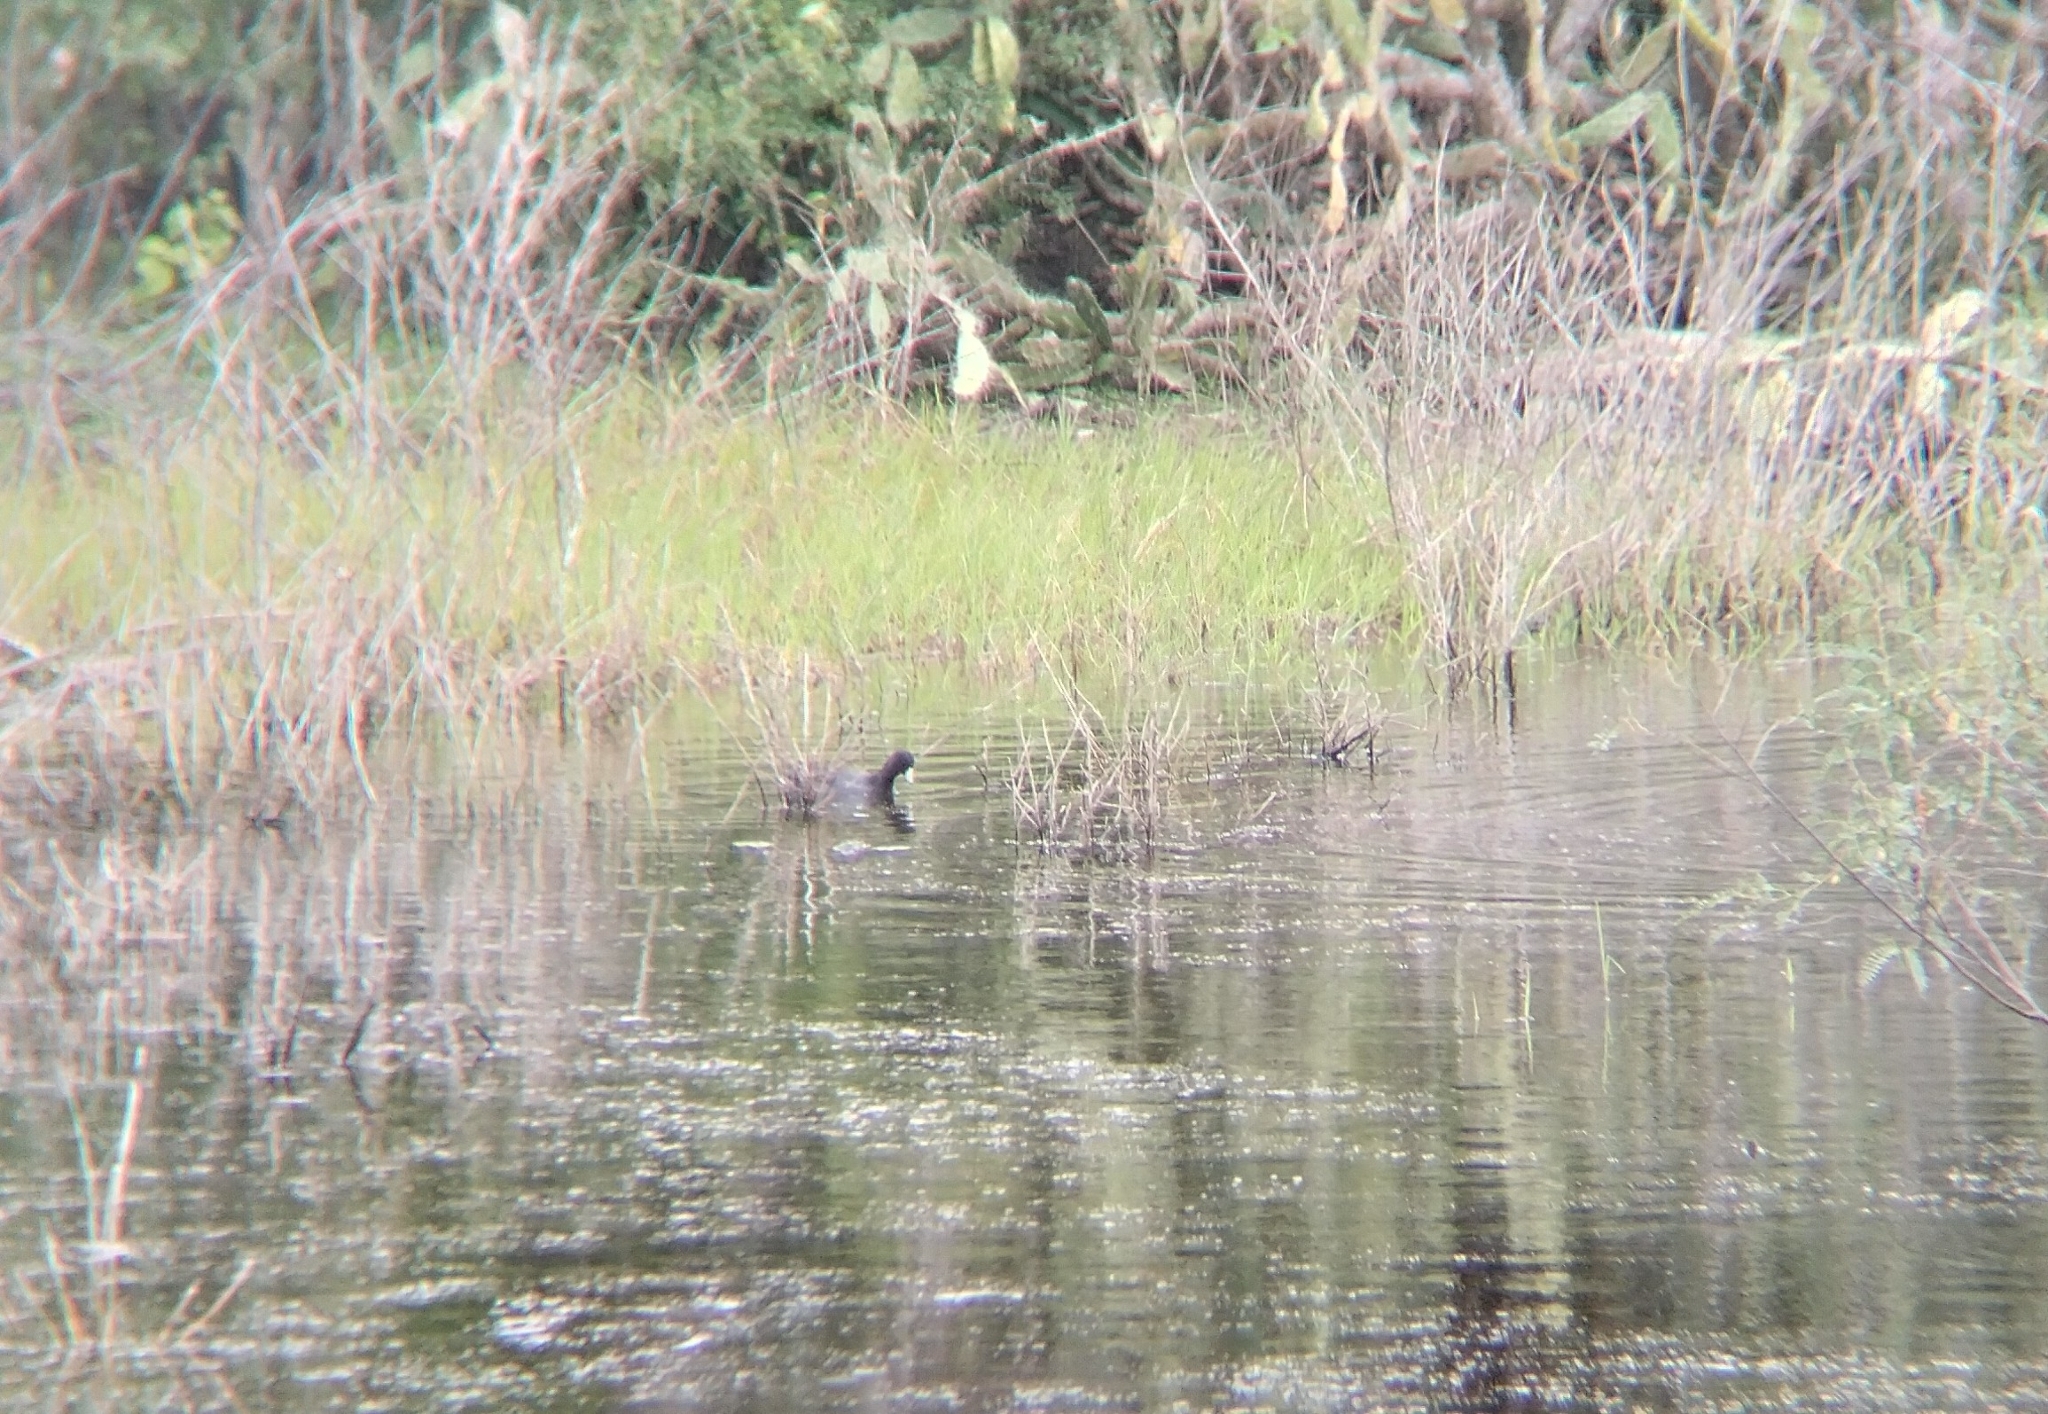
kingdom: Animalia
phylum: Chordata
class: Aves
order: Gruiformes
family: Rallidae
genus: Fulica
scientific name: Fulica americana
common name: American coot
